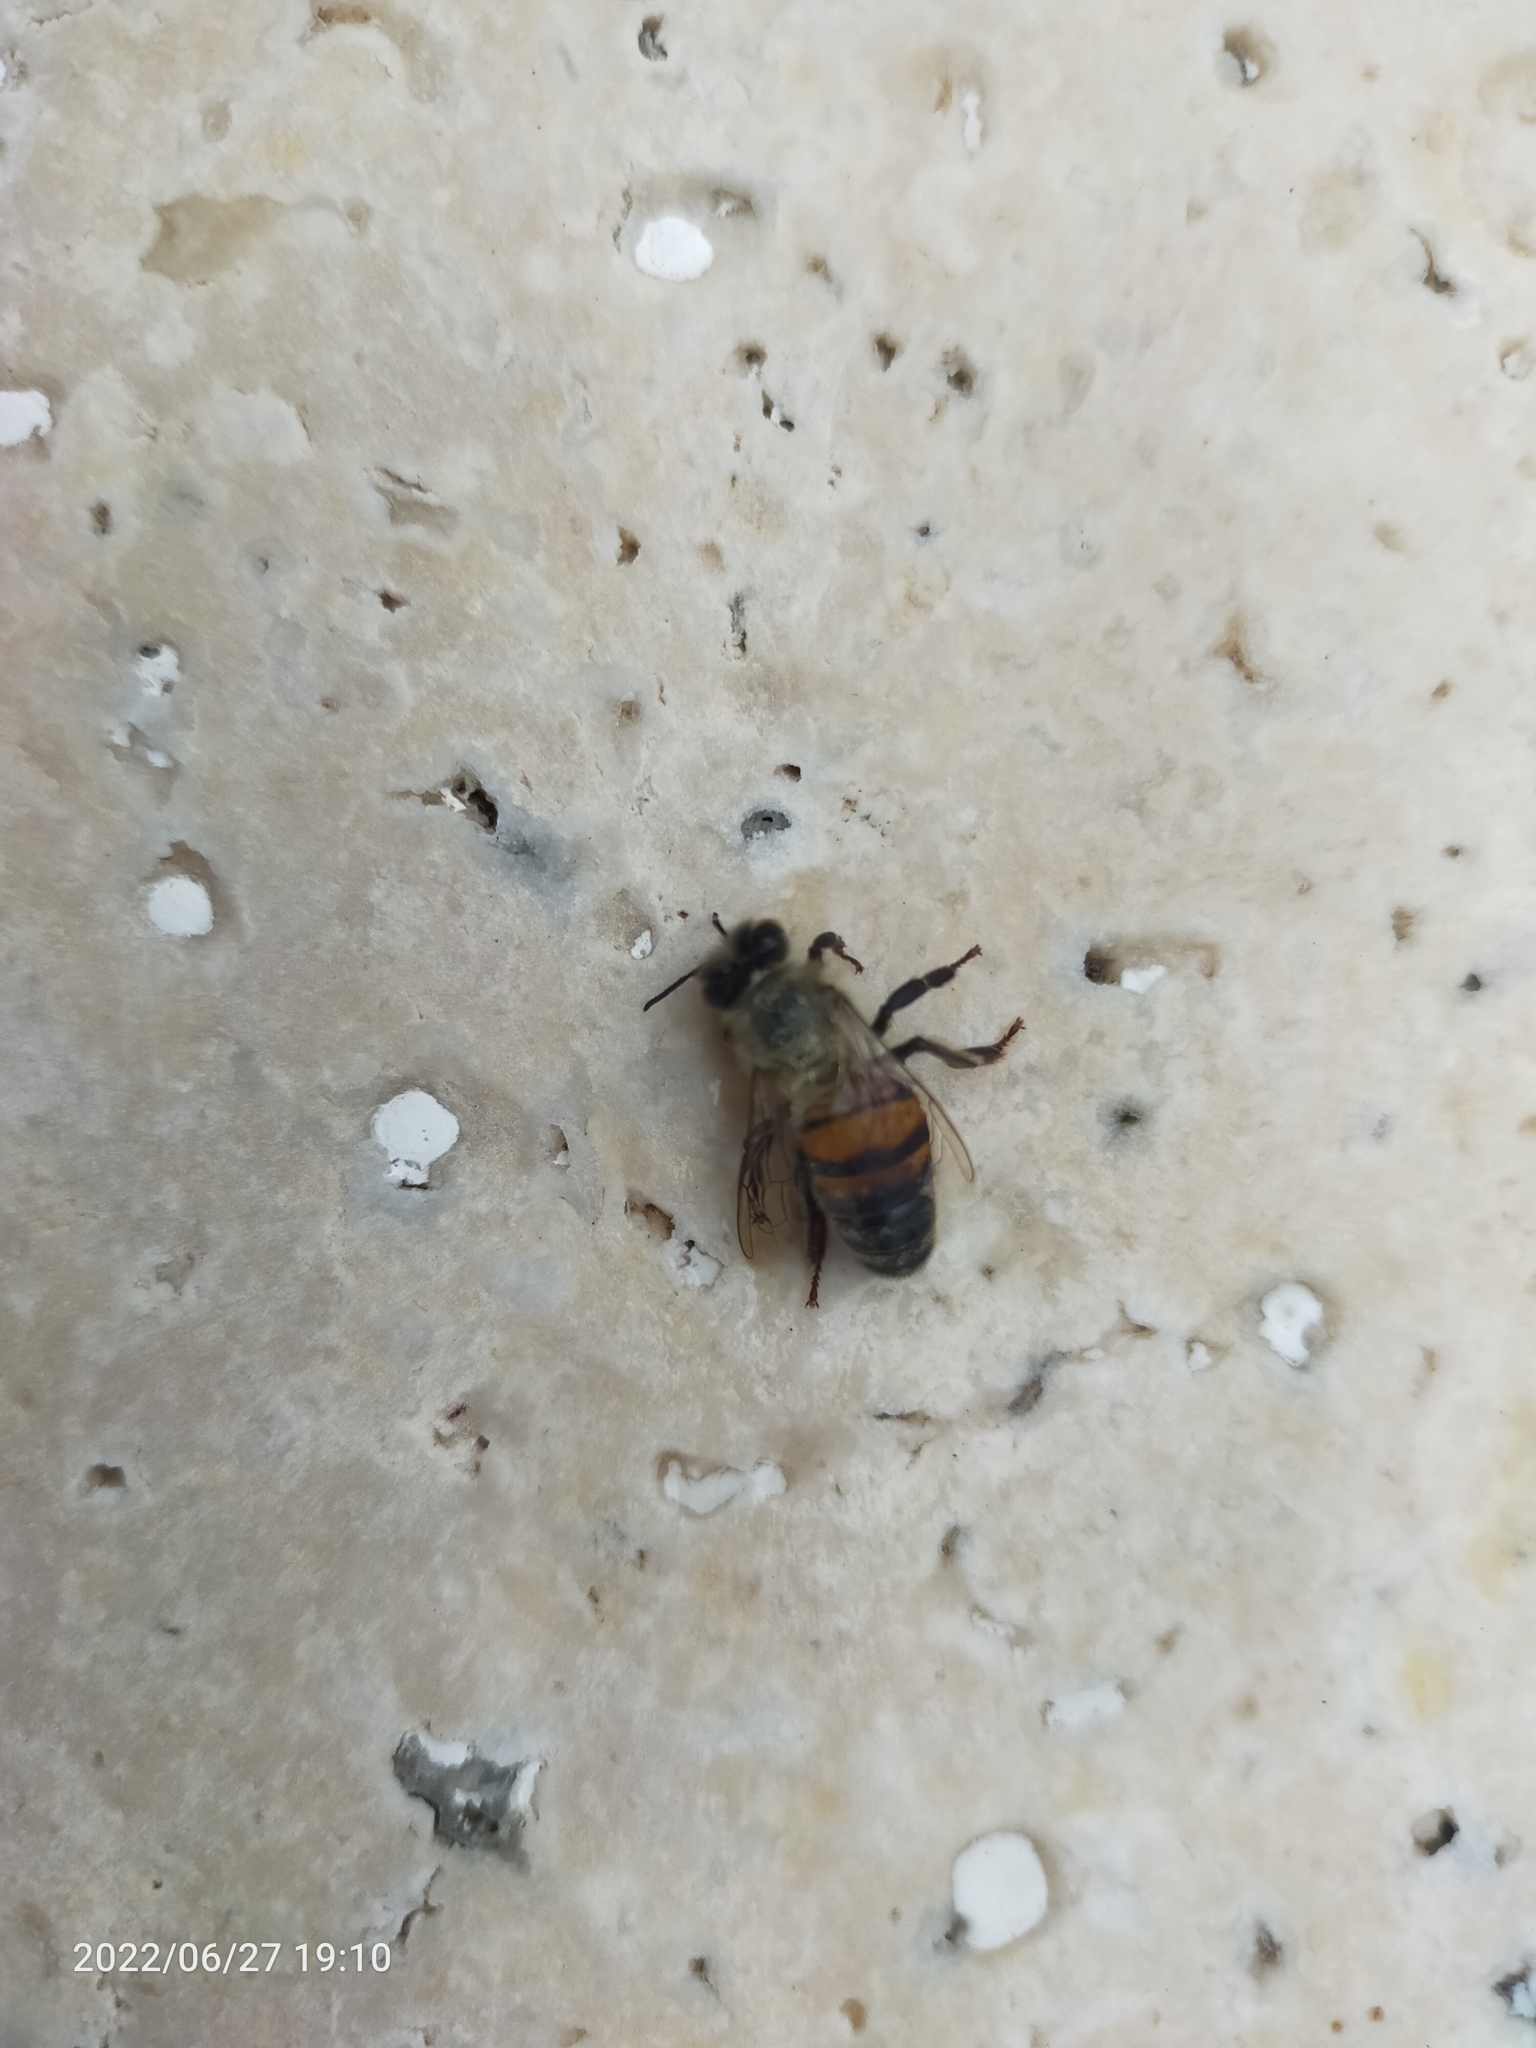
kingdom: Animalia
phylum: Arthropoda
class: Insecta
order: Hymenoptera
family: Apidae
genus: Apis
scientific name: Apis mellifera
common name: Honey bee
